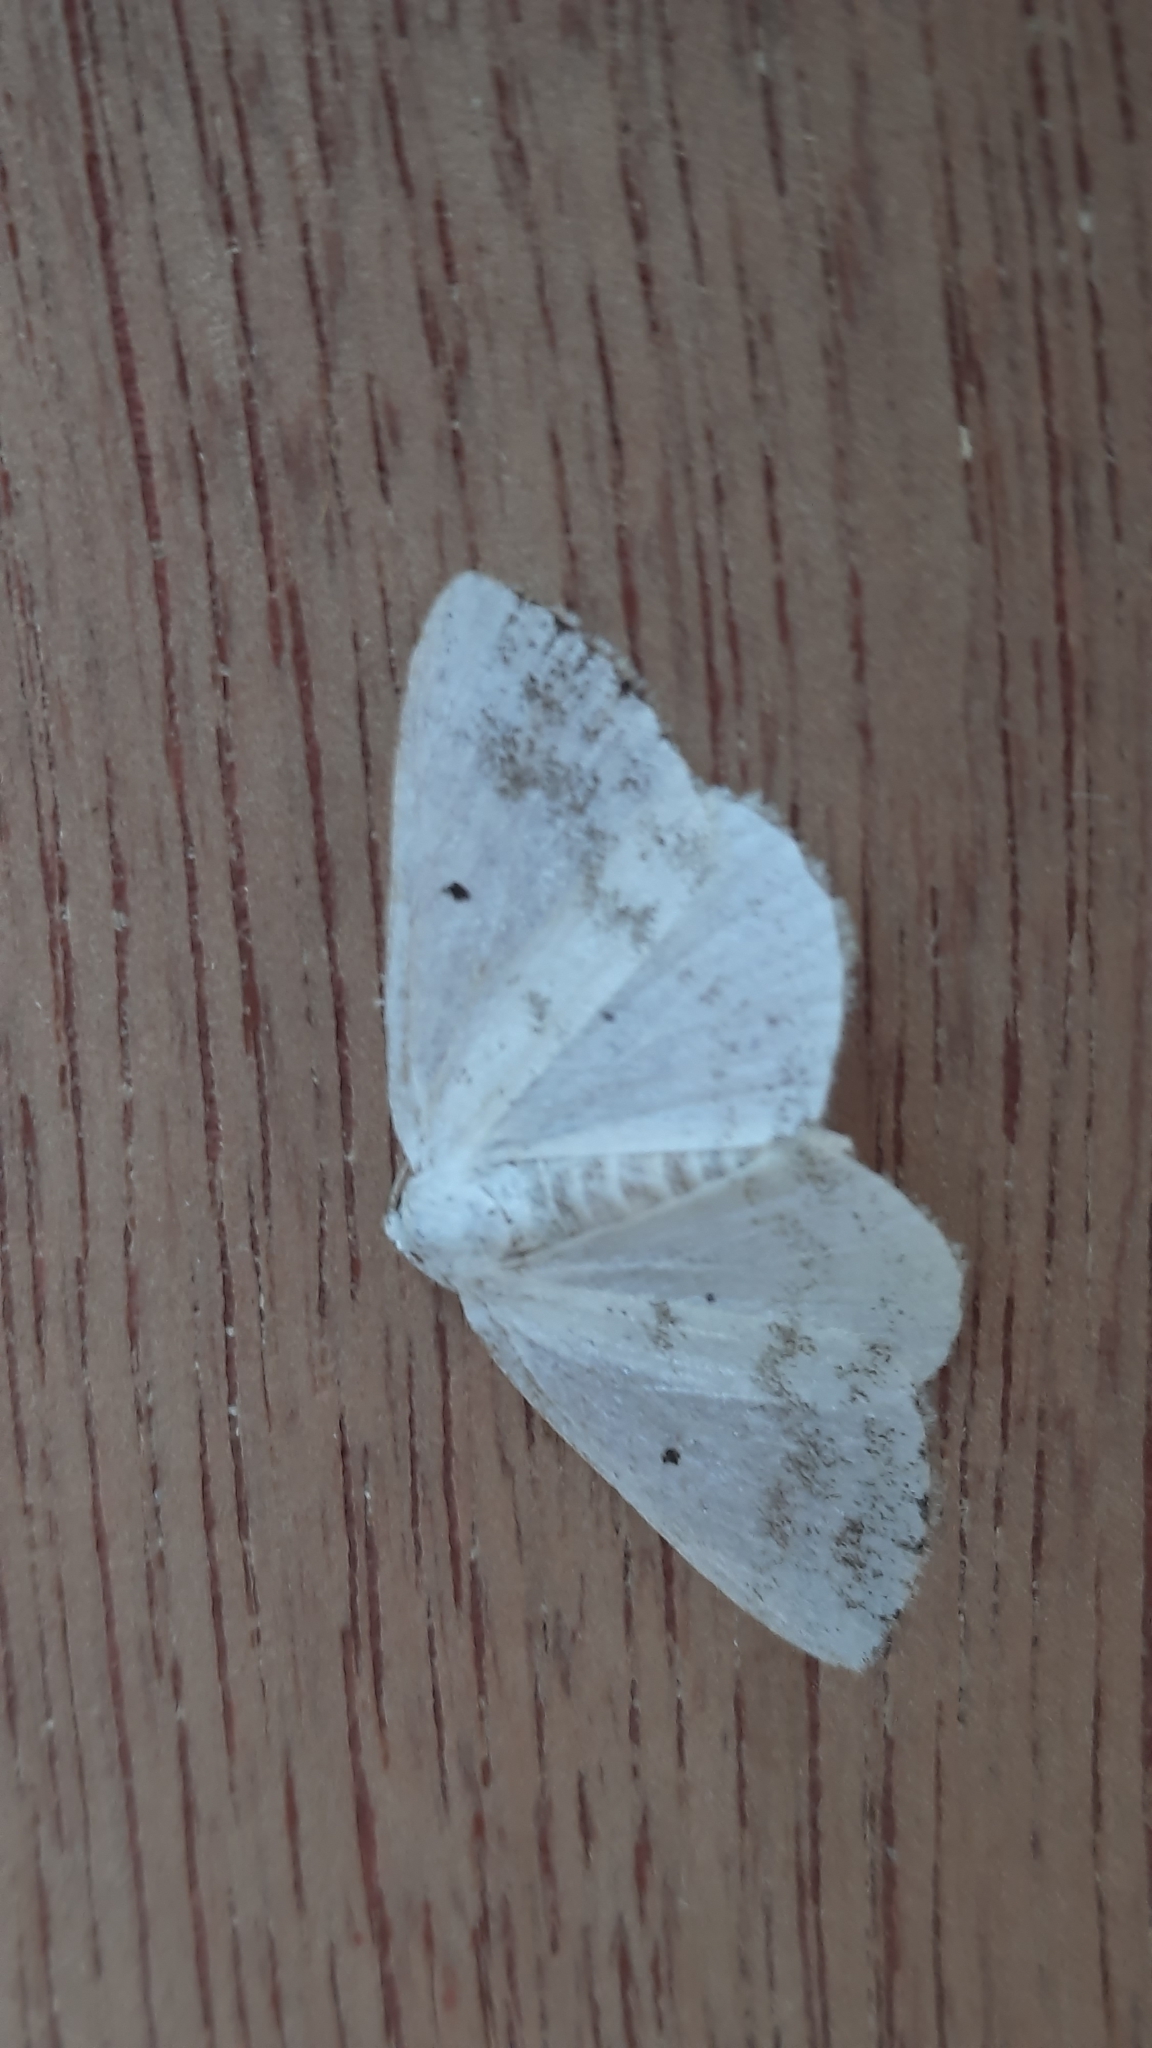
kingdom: Animalia
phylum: Arthropoda
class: Insecta
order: Lepidoptera
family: Geometridae
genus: Lomographa
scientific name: Lomographa temerata
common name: Clouded silver
